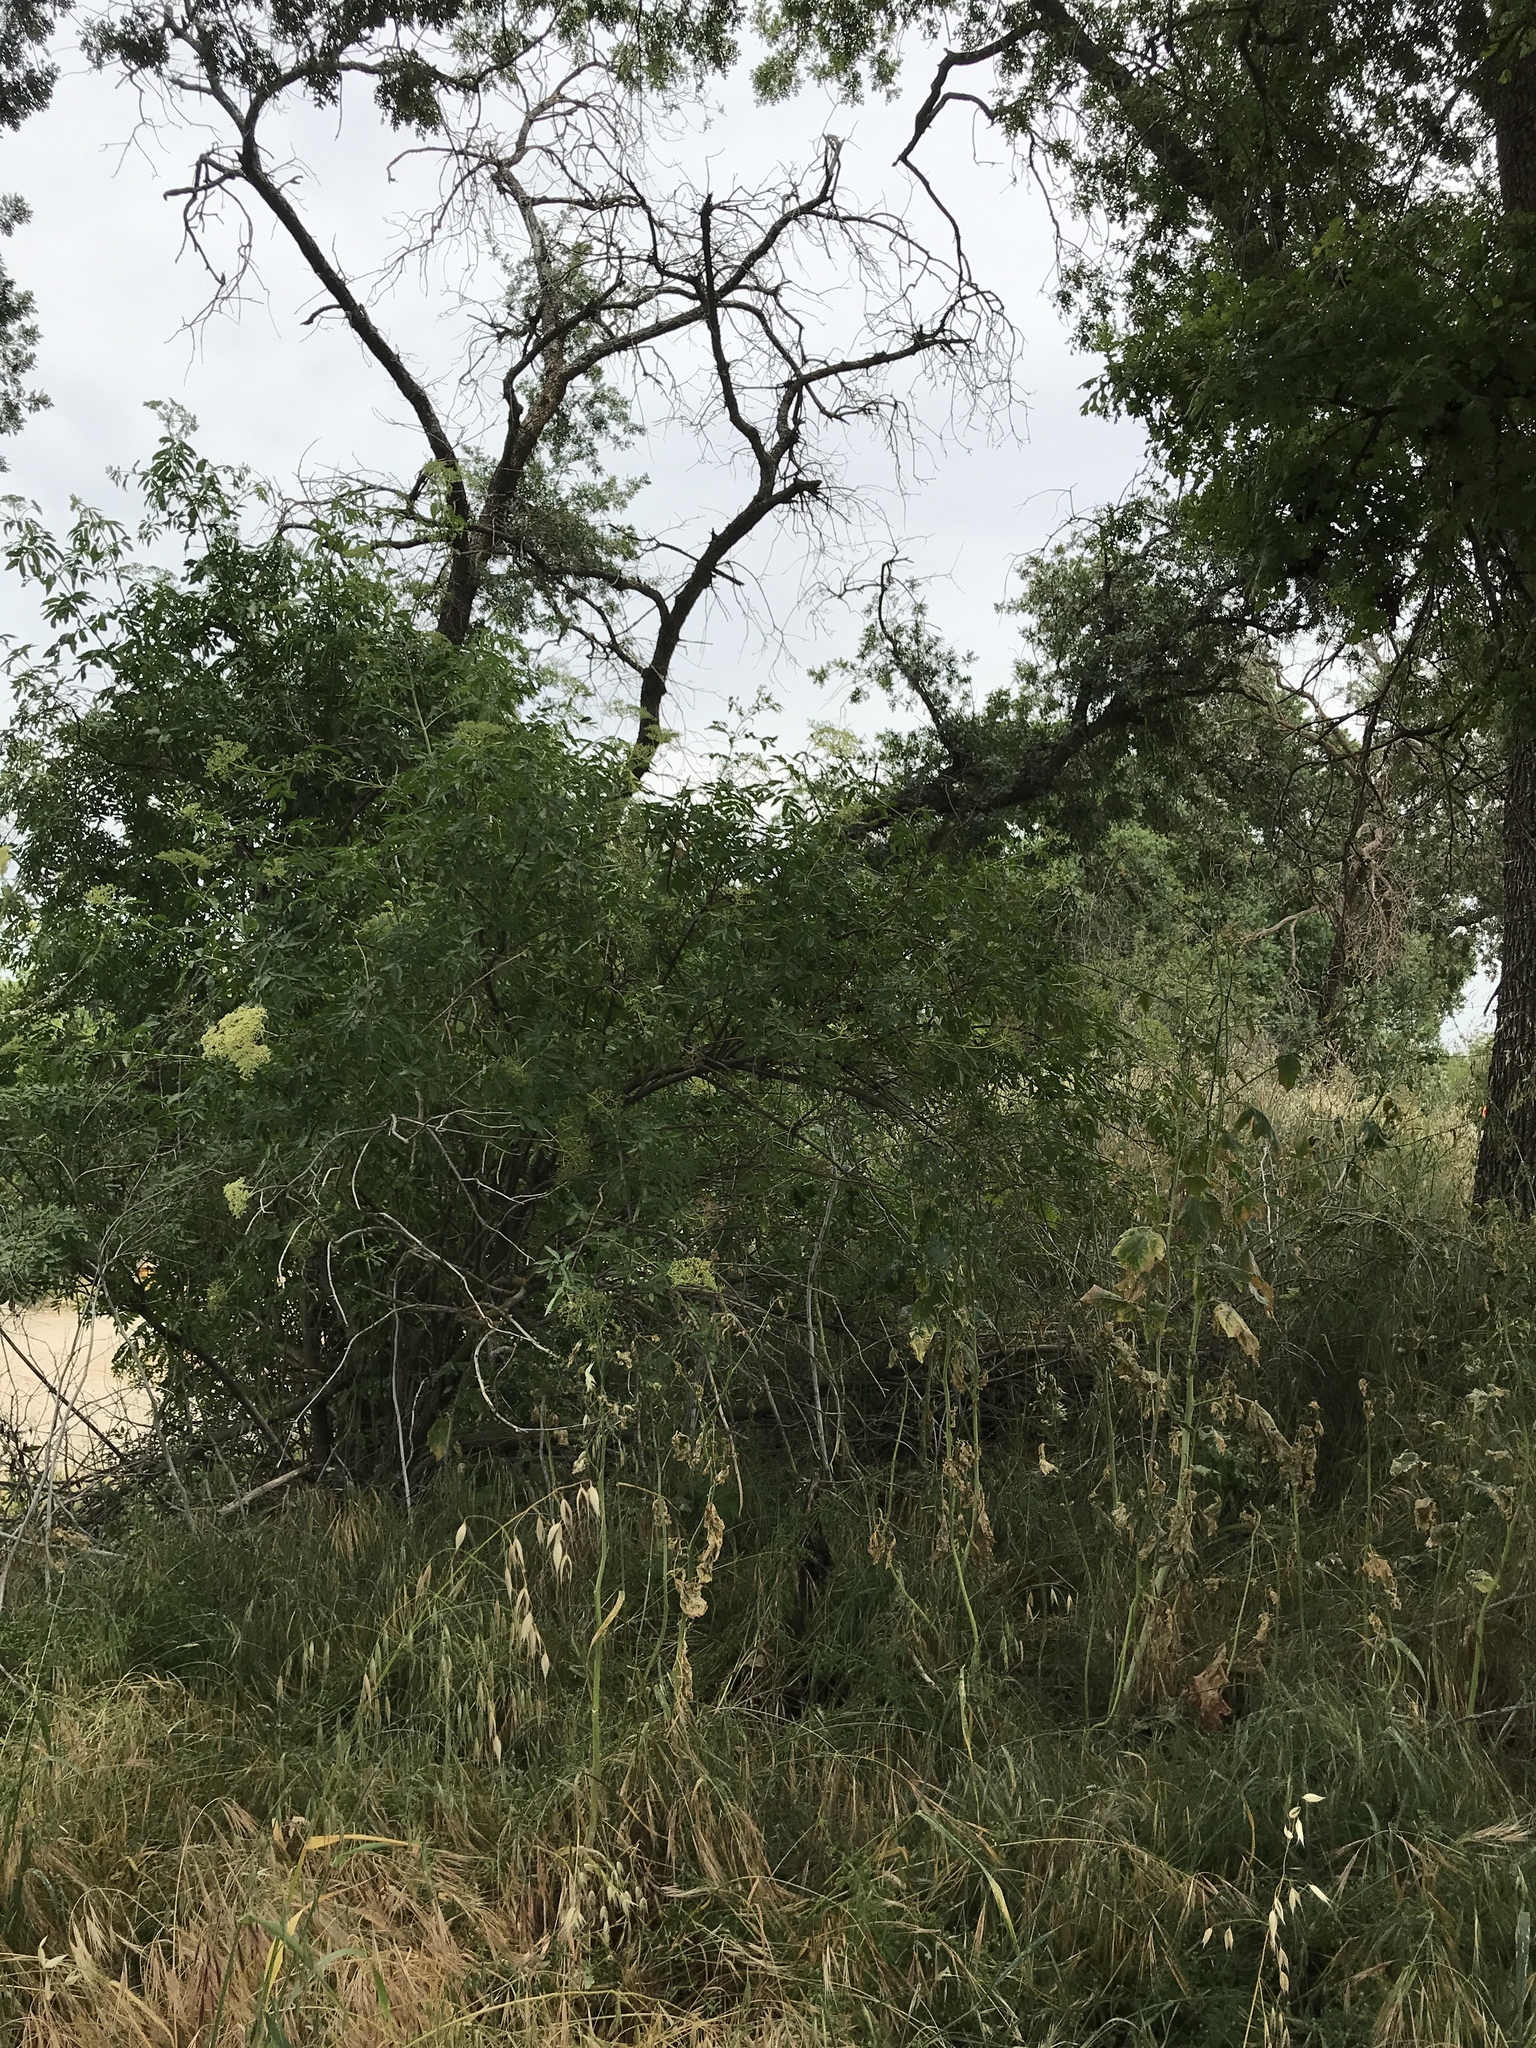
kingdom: Plantae
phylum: Tracheophyta
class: Magnoliopsida
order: Dipsacales
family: Viburnaceae
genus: Sambucus
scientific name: Sambucus cerulea
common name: Blue elder
